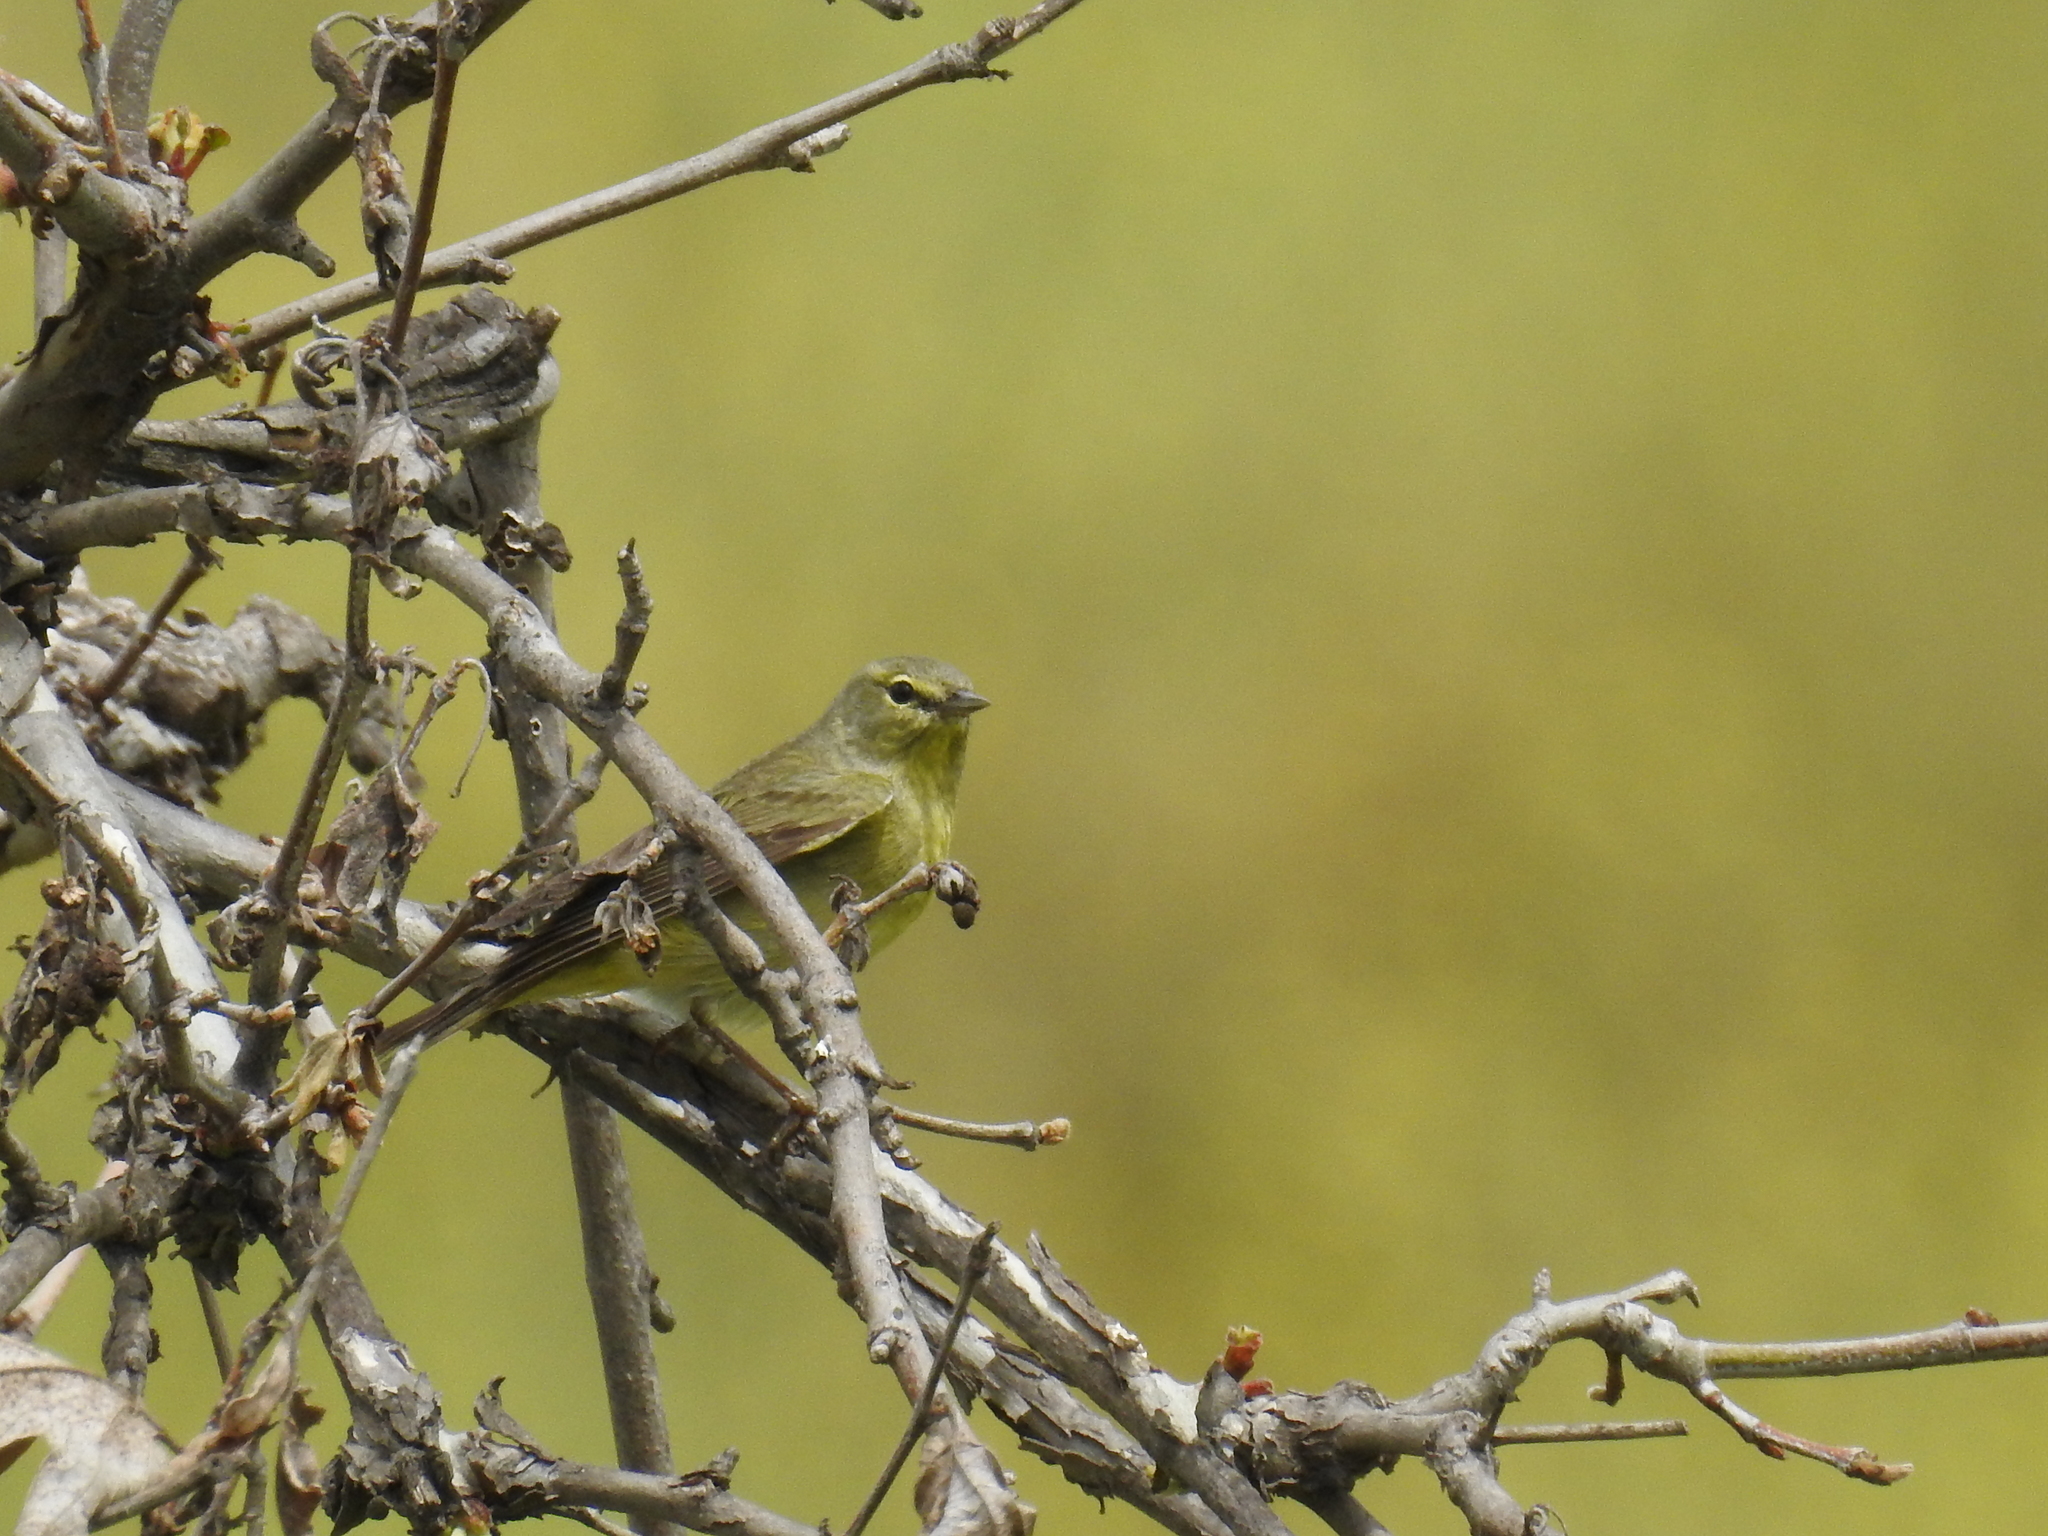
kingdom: Animalia
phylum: Chordata
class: Aves
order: Passeriformes
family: Parulidae
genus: Leiothlypis
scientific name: Leiothlypis celata
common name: Orange-crowned warbler
